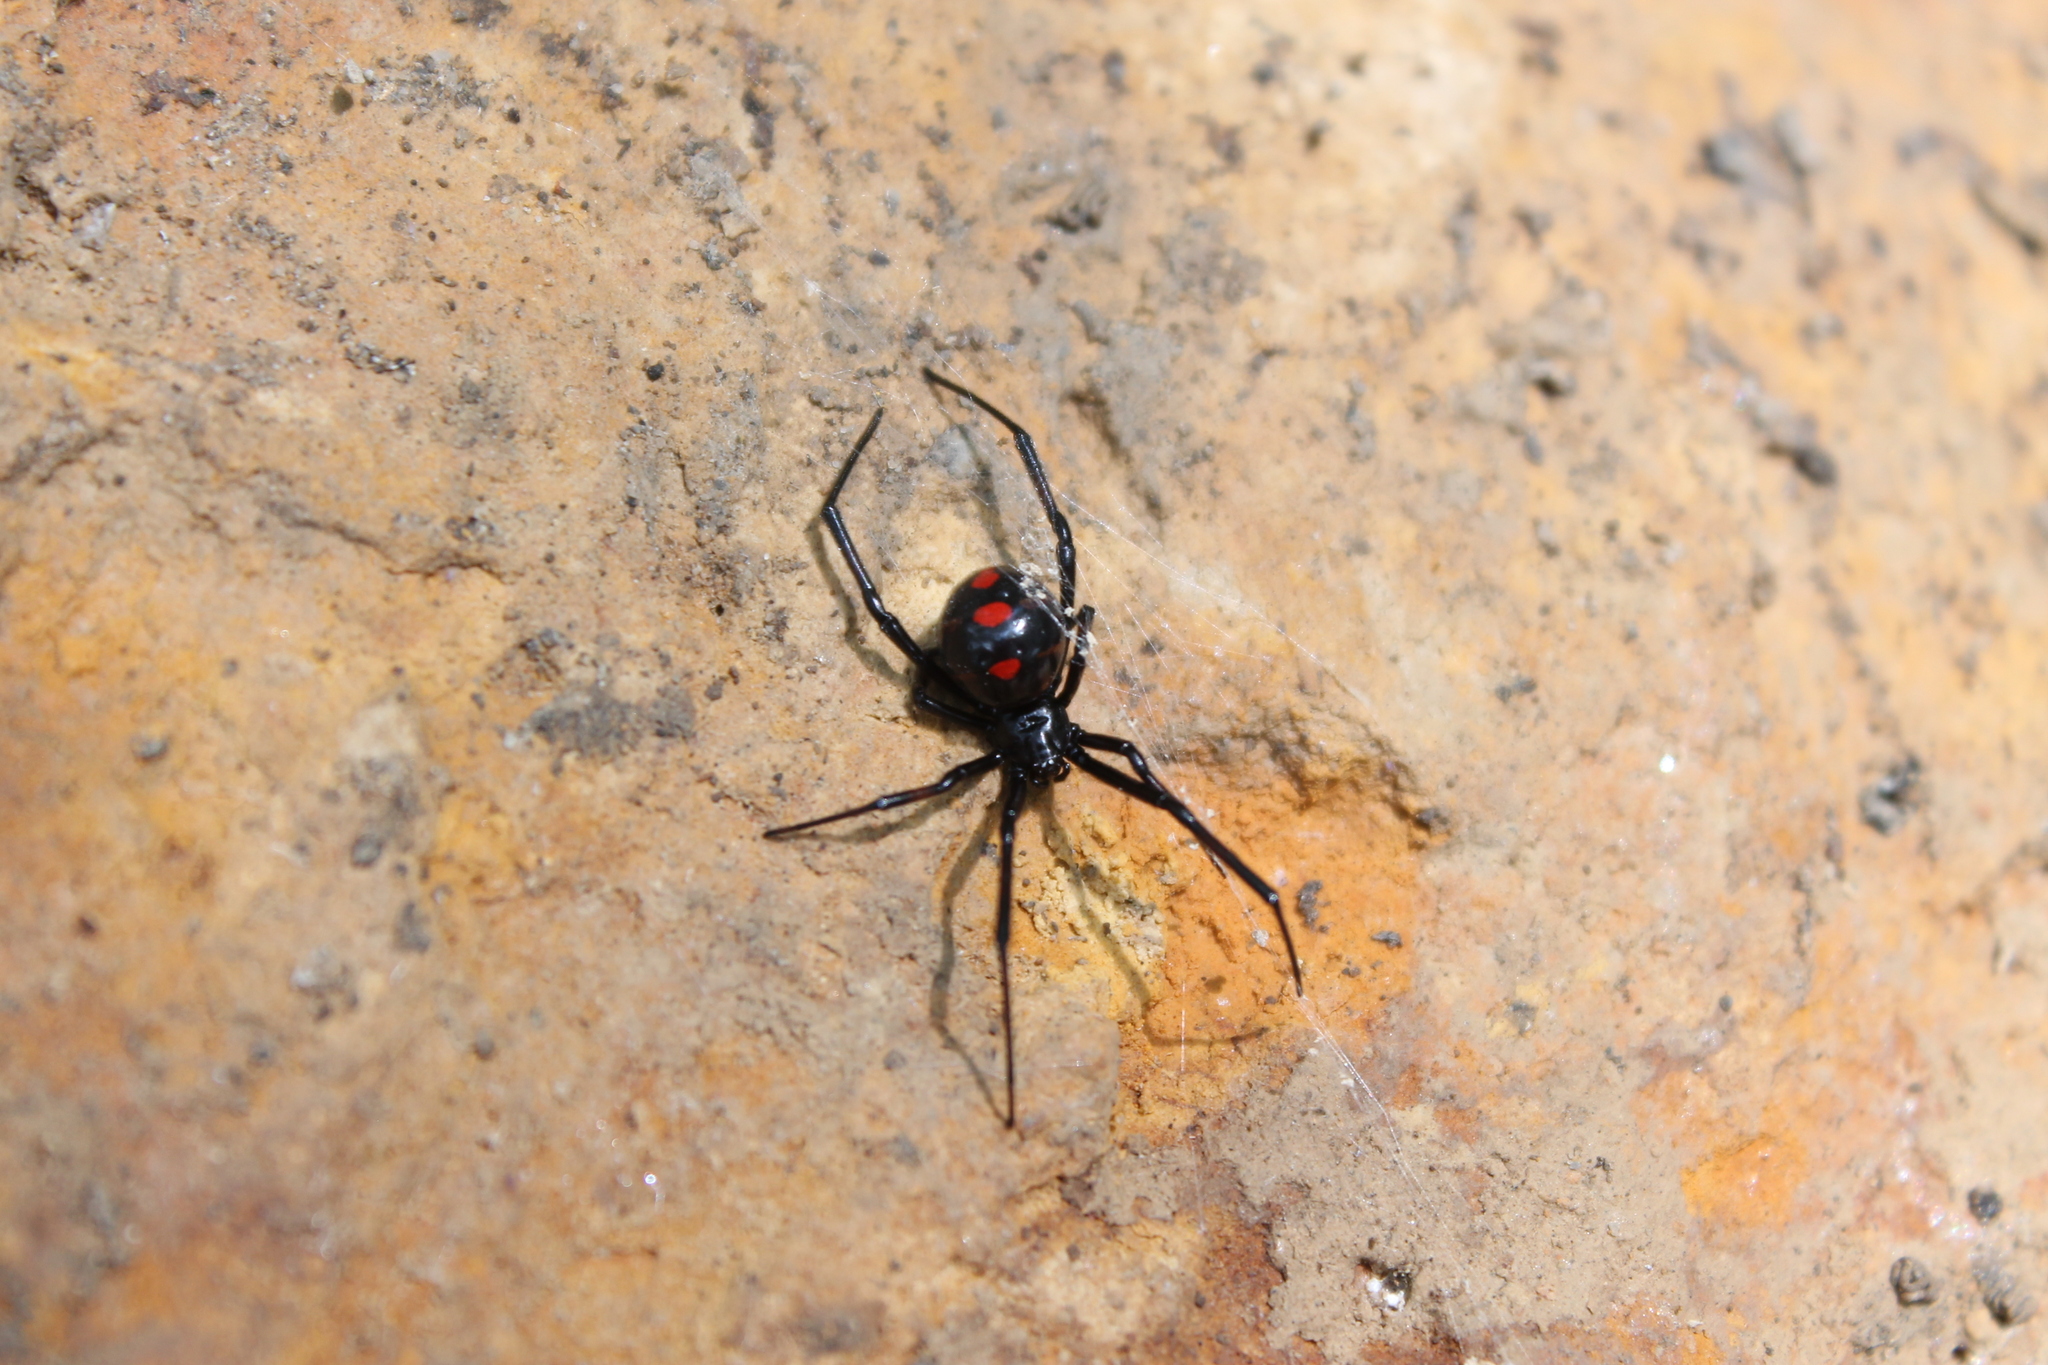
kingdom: Animalia
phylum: Arthropoda
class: Arachnida
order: Araneae
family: Theridiidae
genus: Latrodectus
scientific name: Latrodectus variolus
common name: Northern black widow
